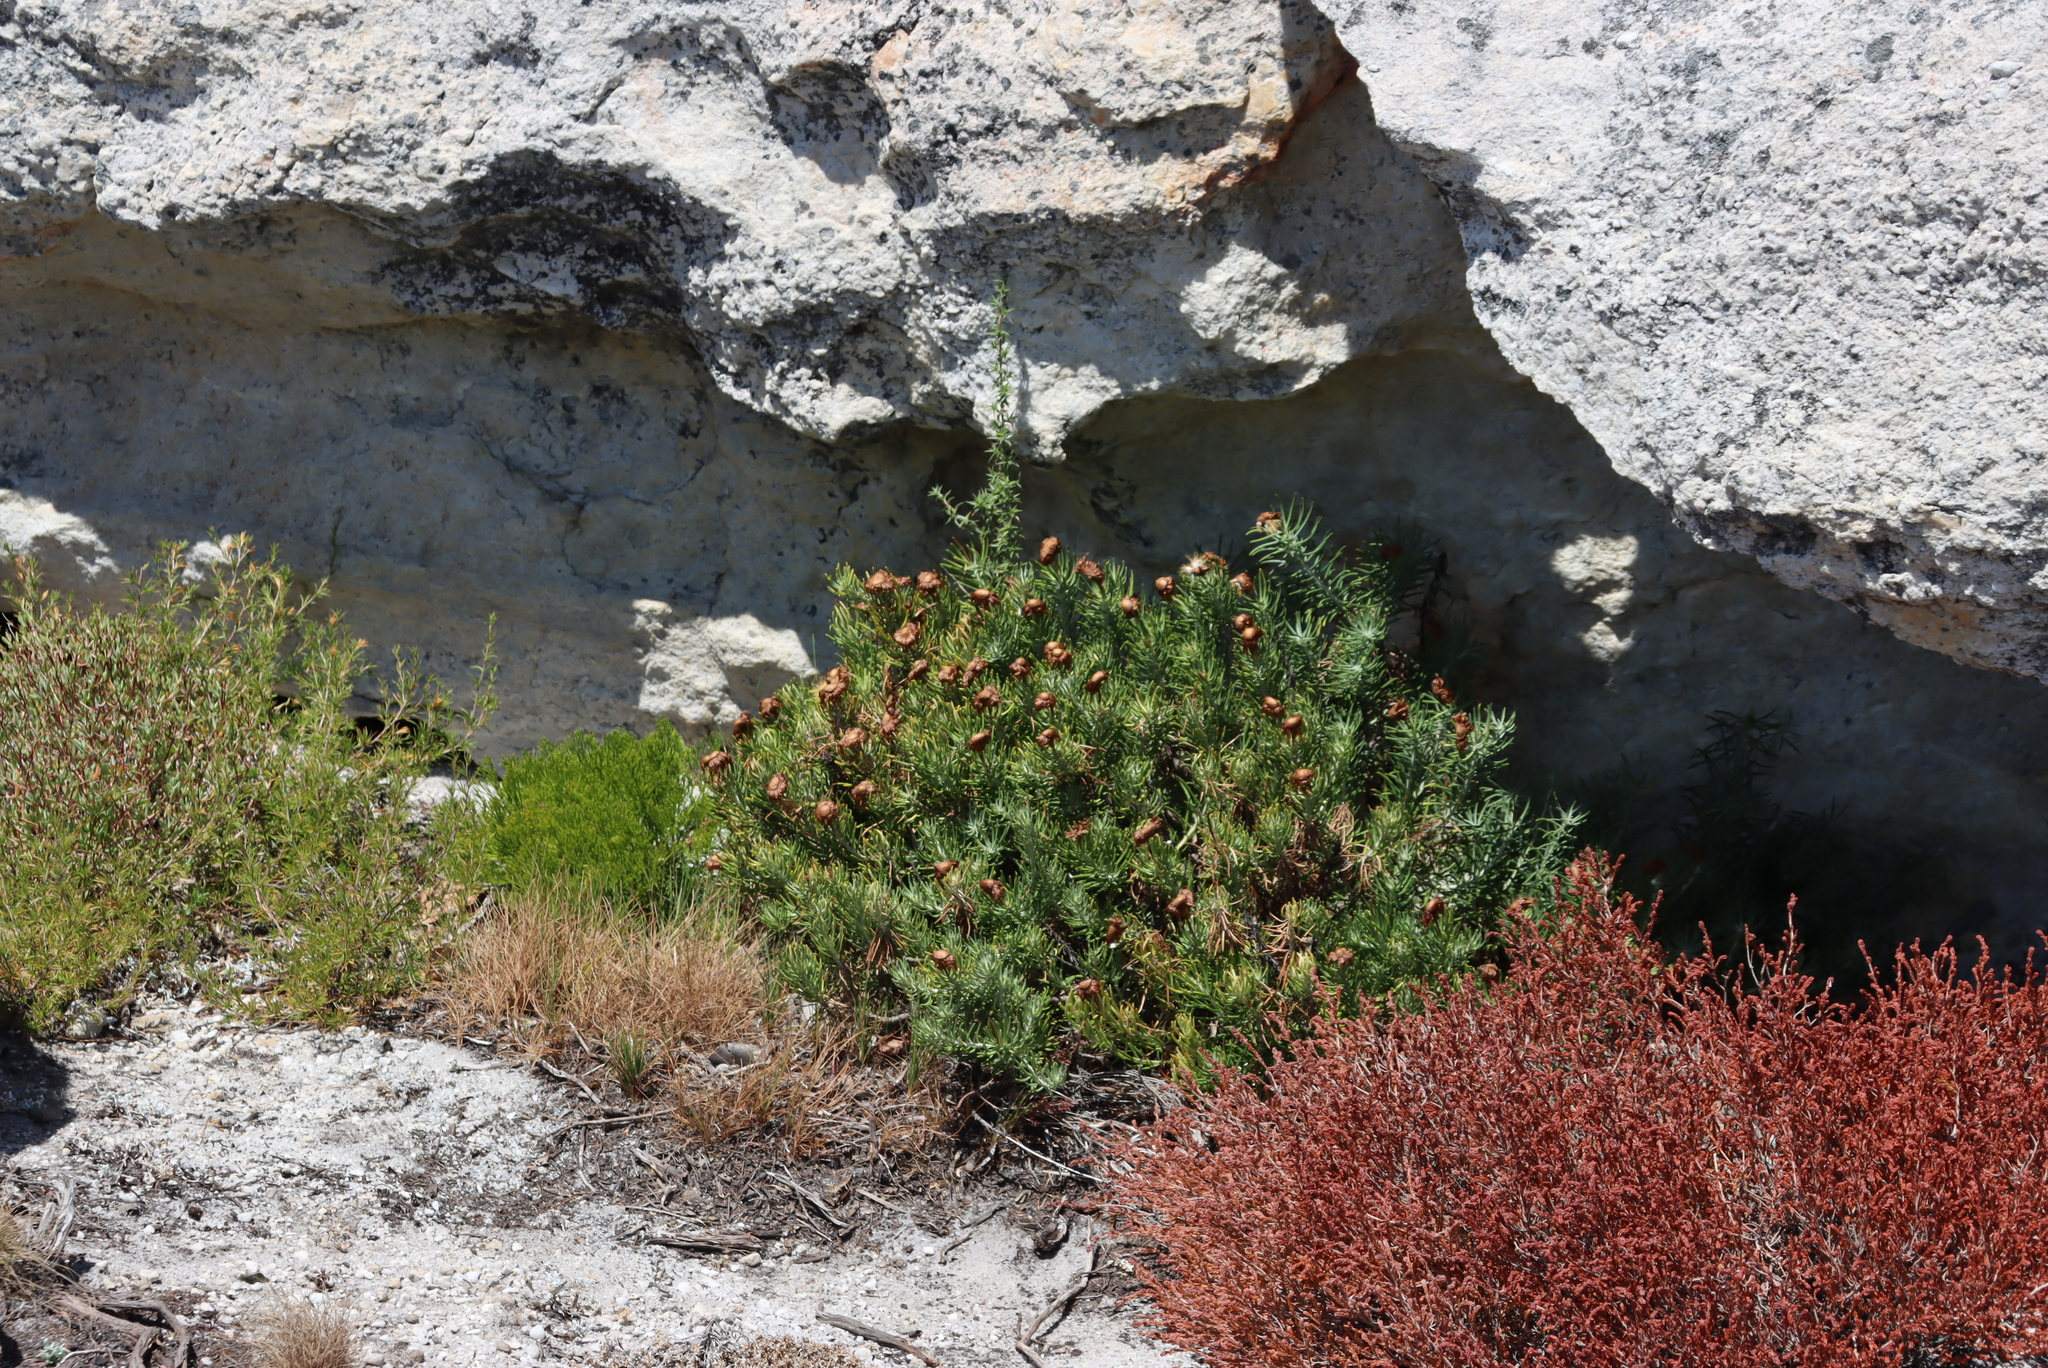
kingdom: Plantae
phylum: Tracheophyta
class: Magnoliopsida
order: Asterales
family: Asteraceae
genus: Heterolepis
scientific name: Heterolepis aliena
